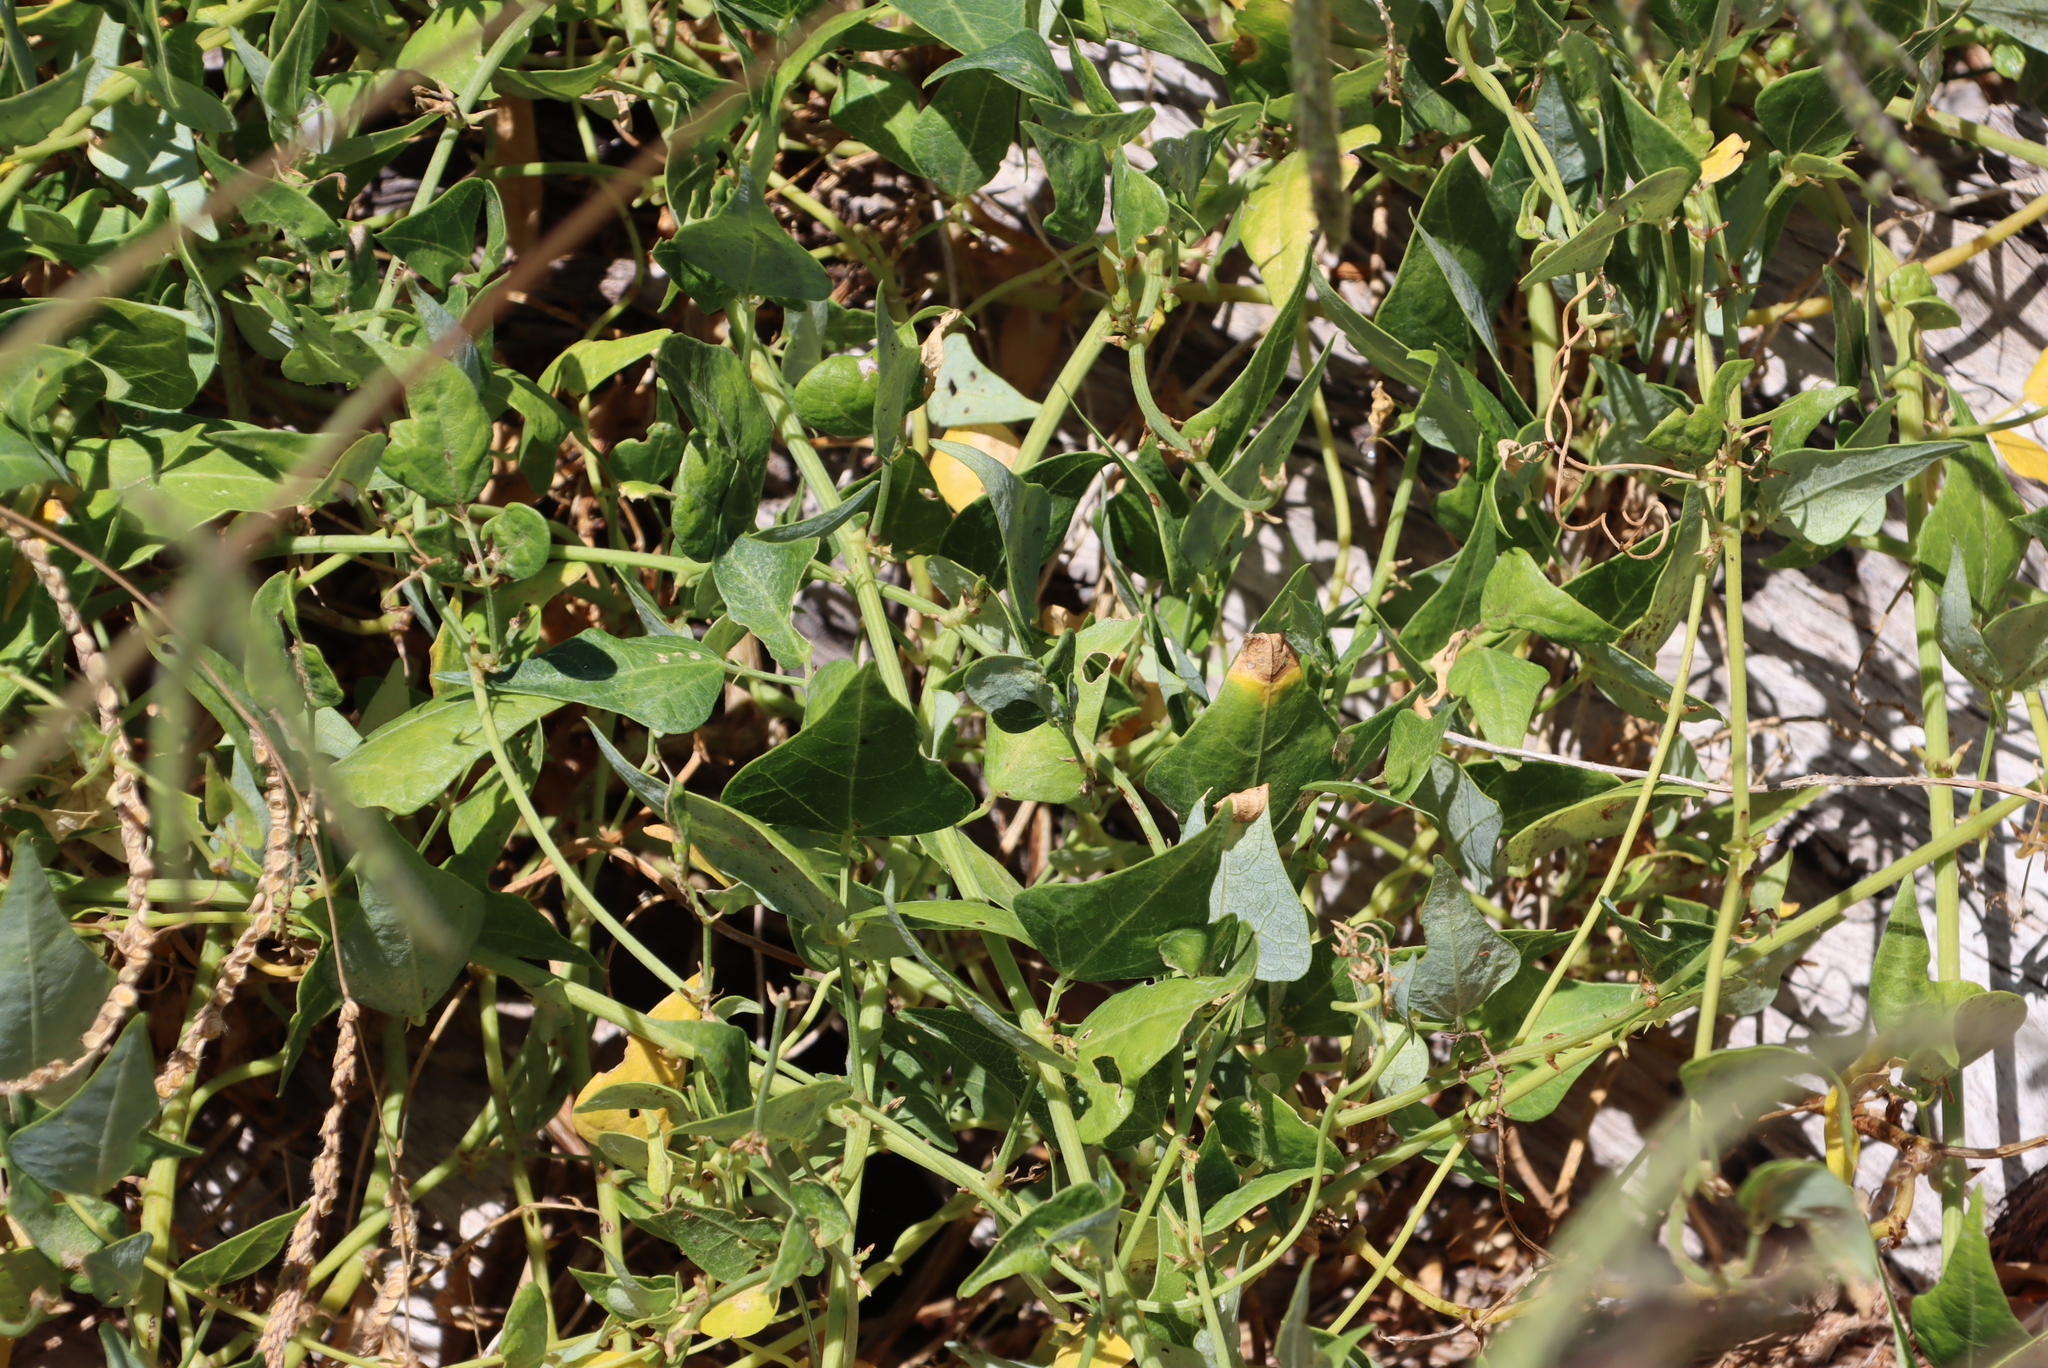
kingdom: Plantae
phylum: Tracheophyta
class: Magnoliopsida
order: Fabales
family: Fabaceae
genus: Dipogon
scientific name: Dipogon lignosus
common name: Okie bean
